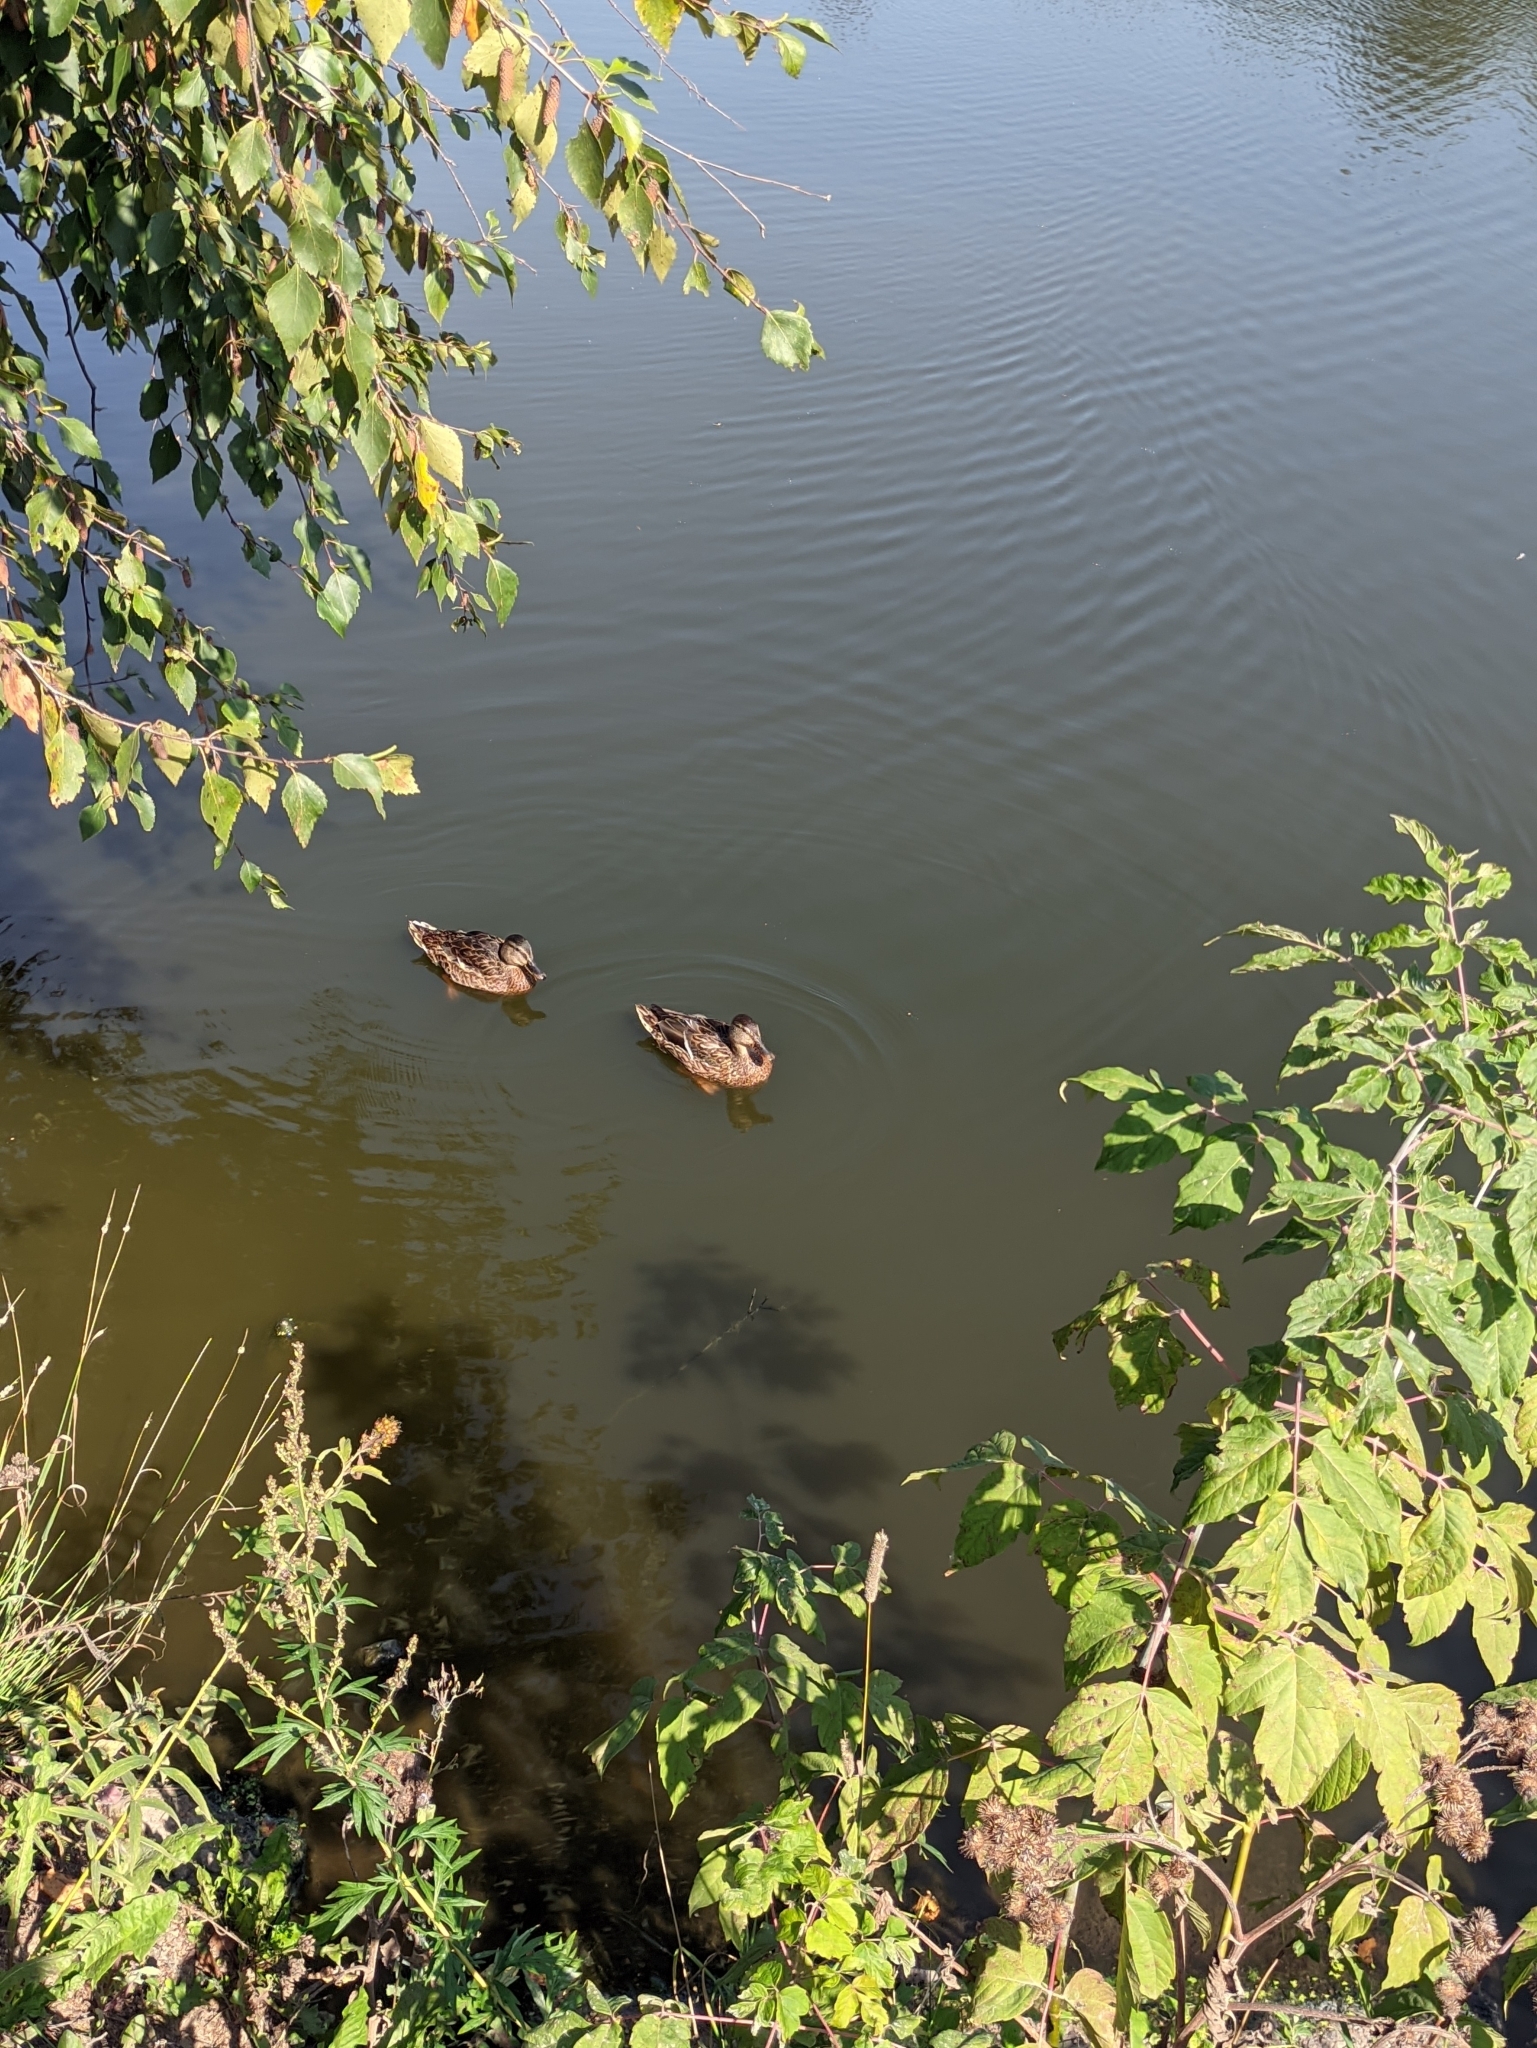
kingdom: Animalia
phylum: Chordata
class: Aves
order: Anseriformes
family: Anatidae
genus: Anas
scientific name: Anas platyrhynchos
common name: Mallard
